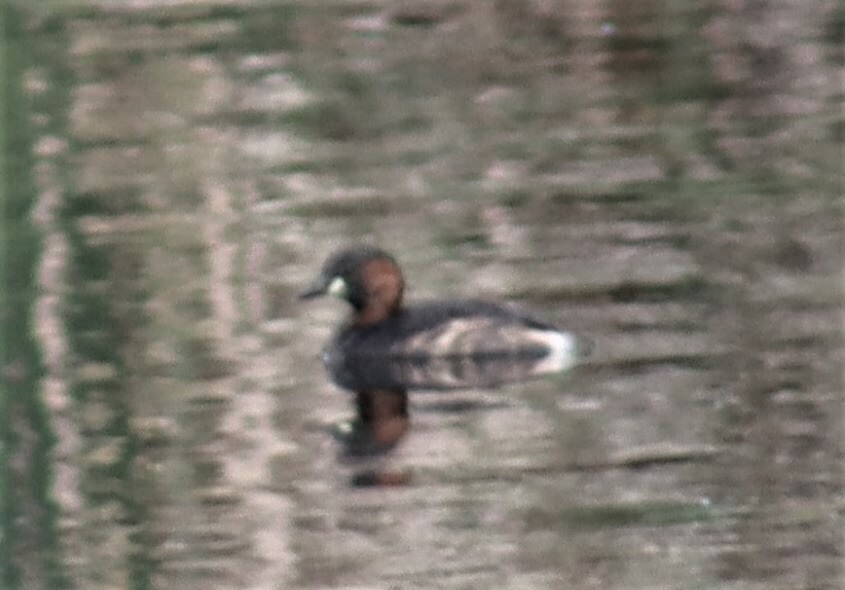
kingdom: Animalia
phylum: Chordata
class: Aves
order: Podicipediformes
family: Podicipedidae
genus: Tachybaptus
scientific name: Tachybaptus ruficollis
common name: Little grebe
